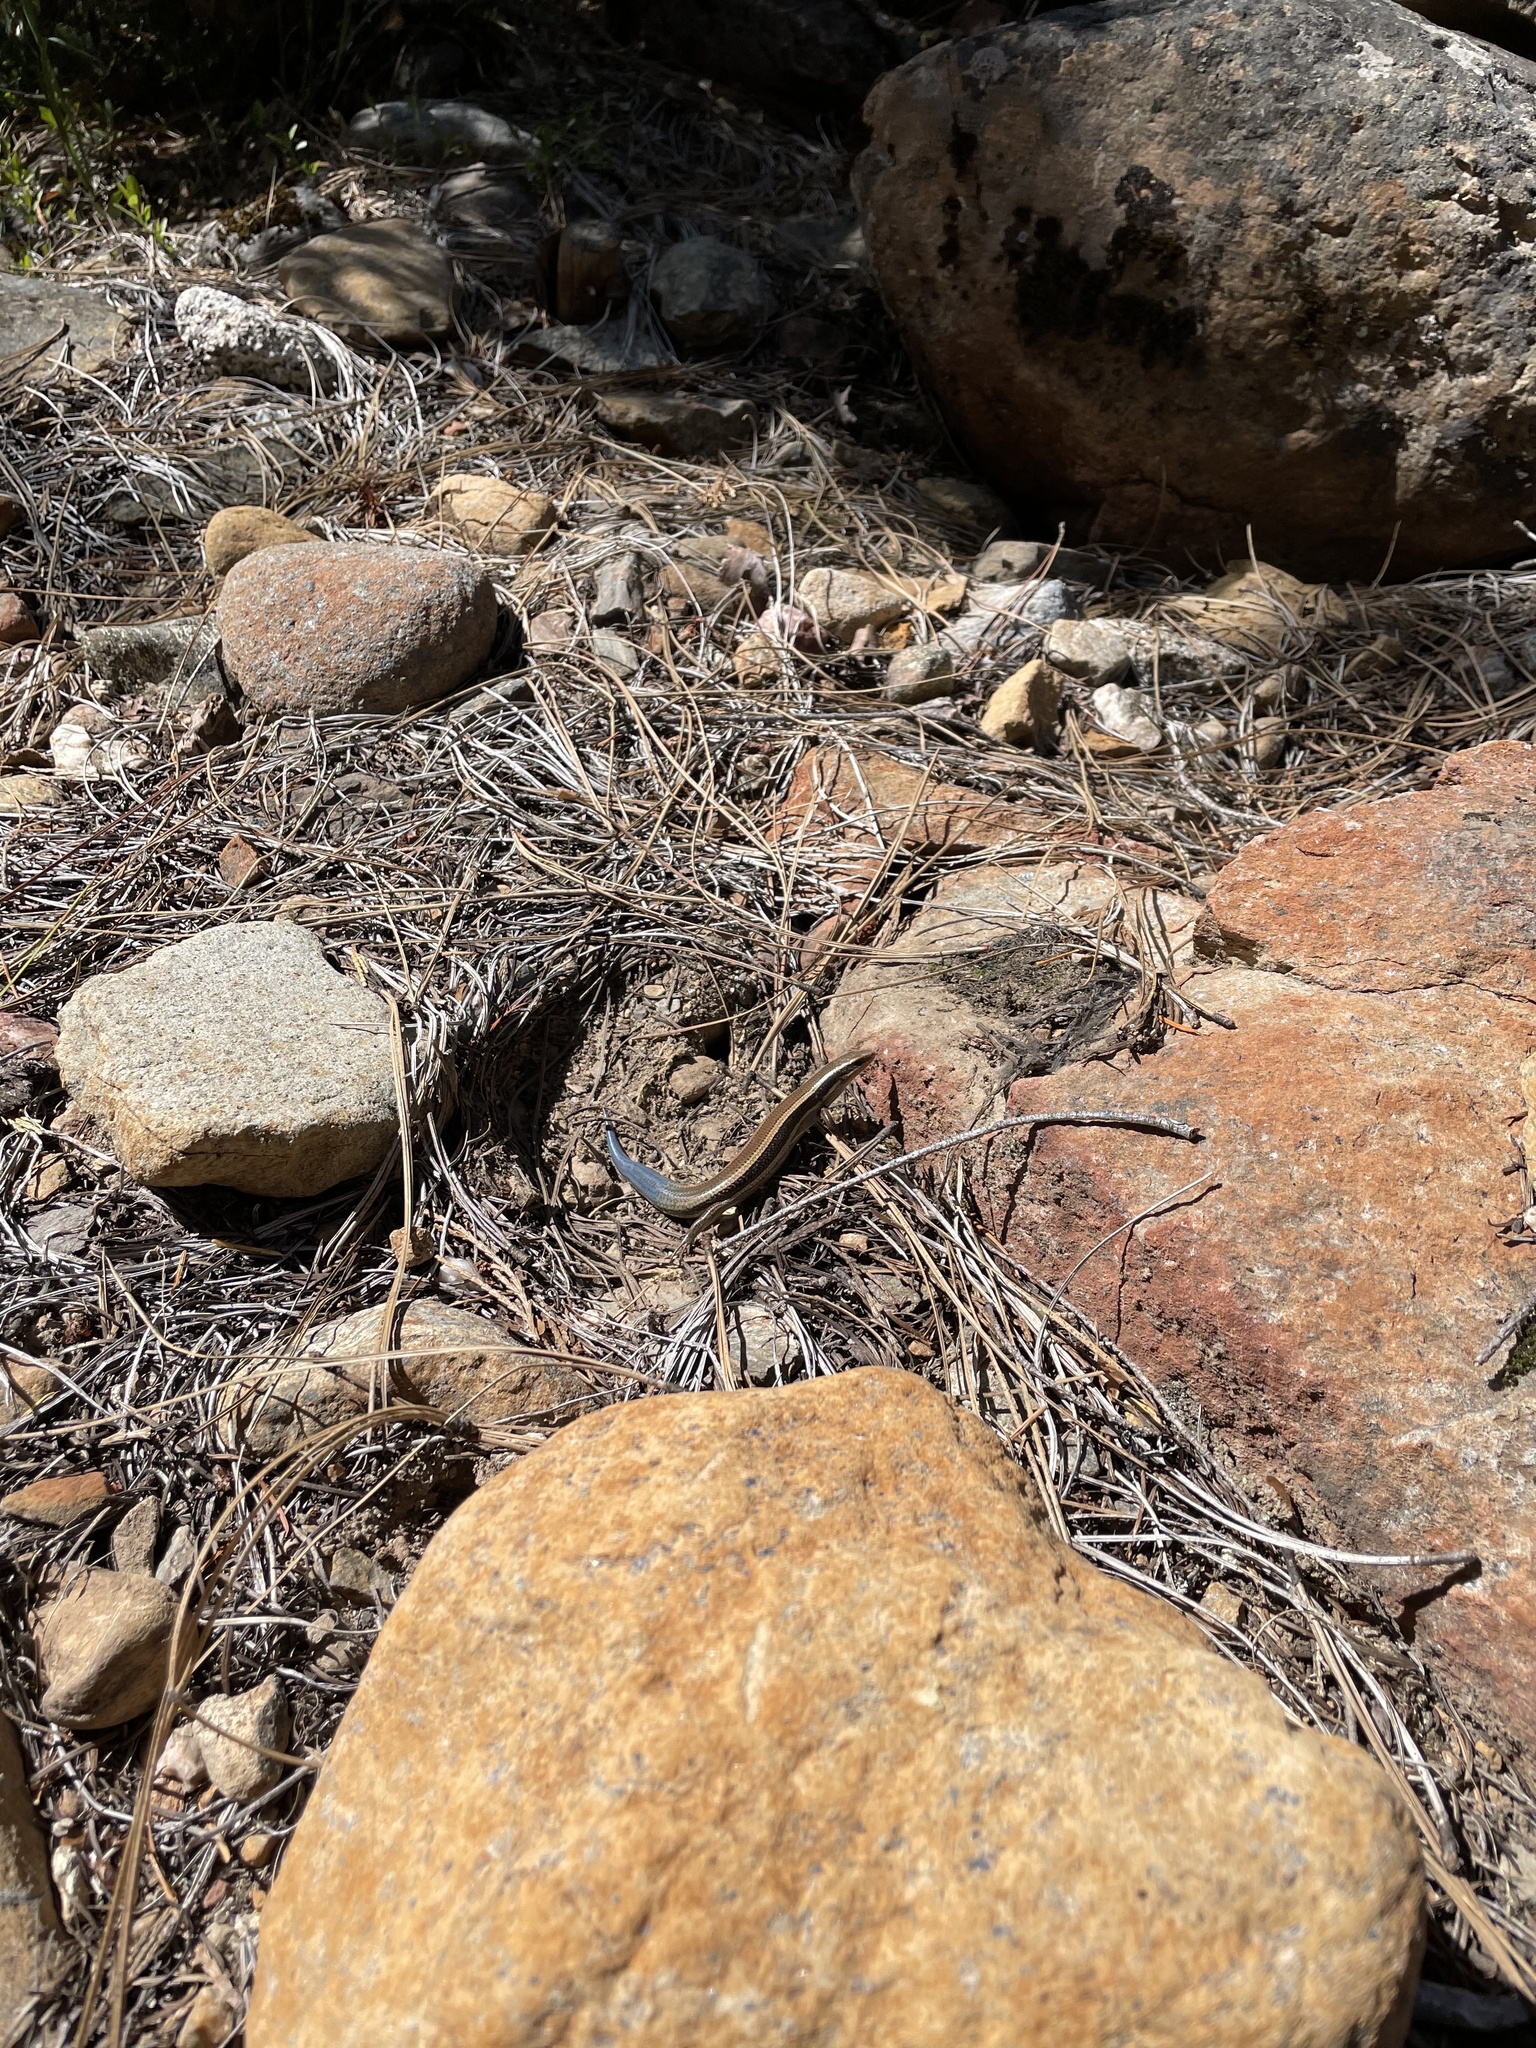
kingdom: Animalia
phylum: Chordata
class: Squamata
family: Scincidae
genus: Plestiodon
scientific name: Plestiodon skiltonianus
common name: Coronado island skink [interparietalis]
